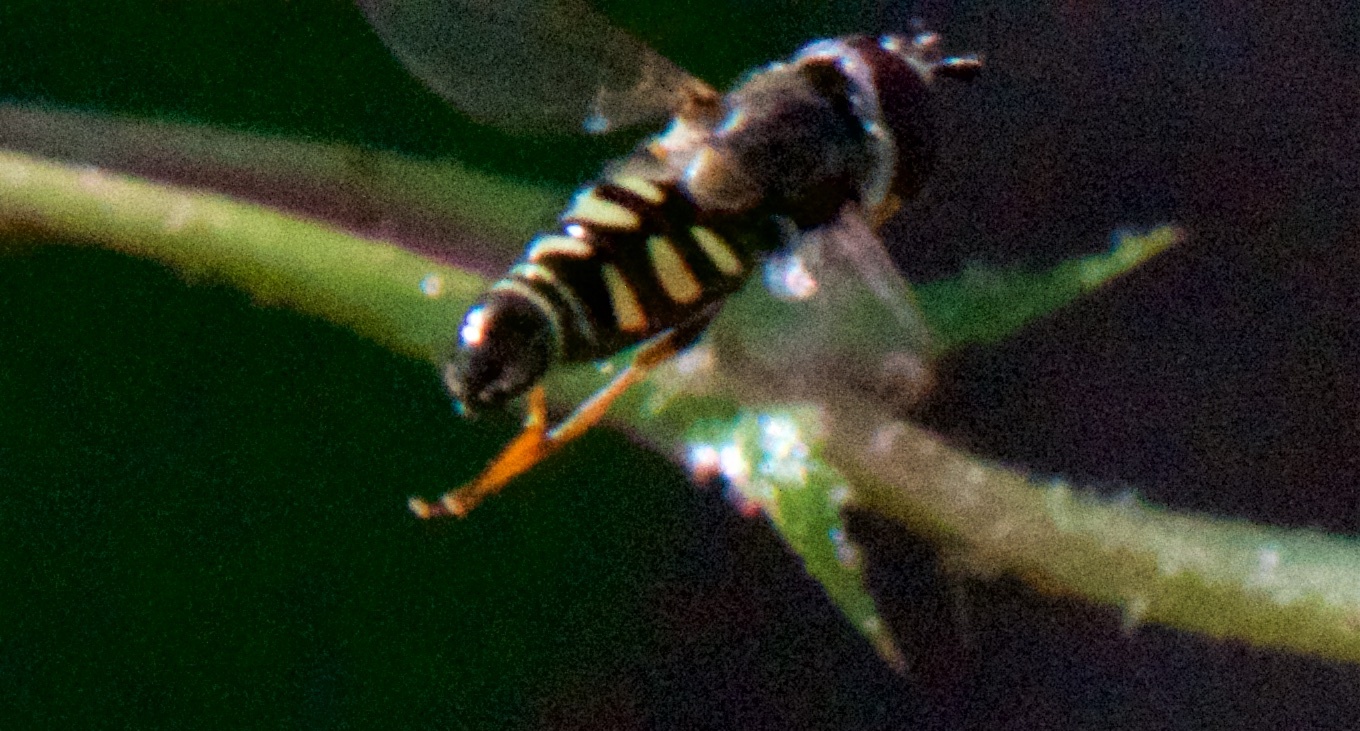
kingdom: Animalia
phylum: Arthropoda
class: Insecta
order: Diptera
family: Syrphidae
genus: Eupeodes
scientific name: Eupeodes volucris
